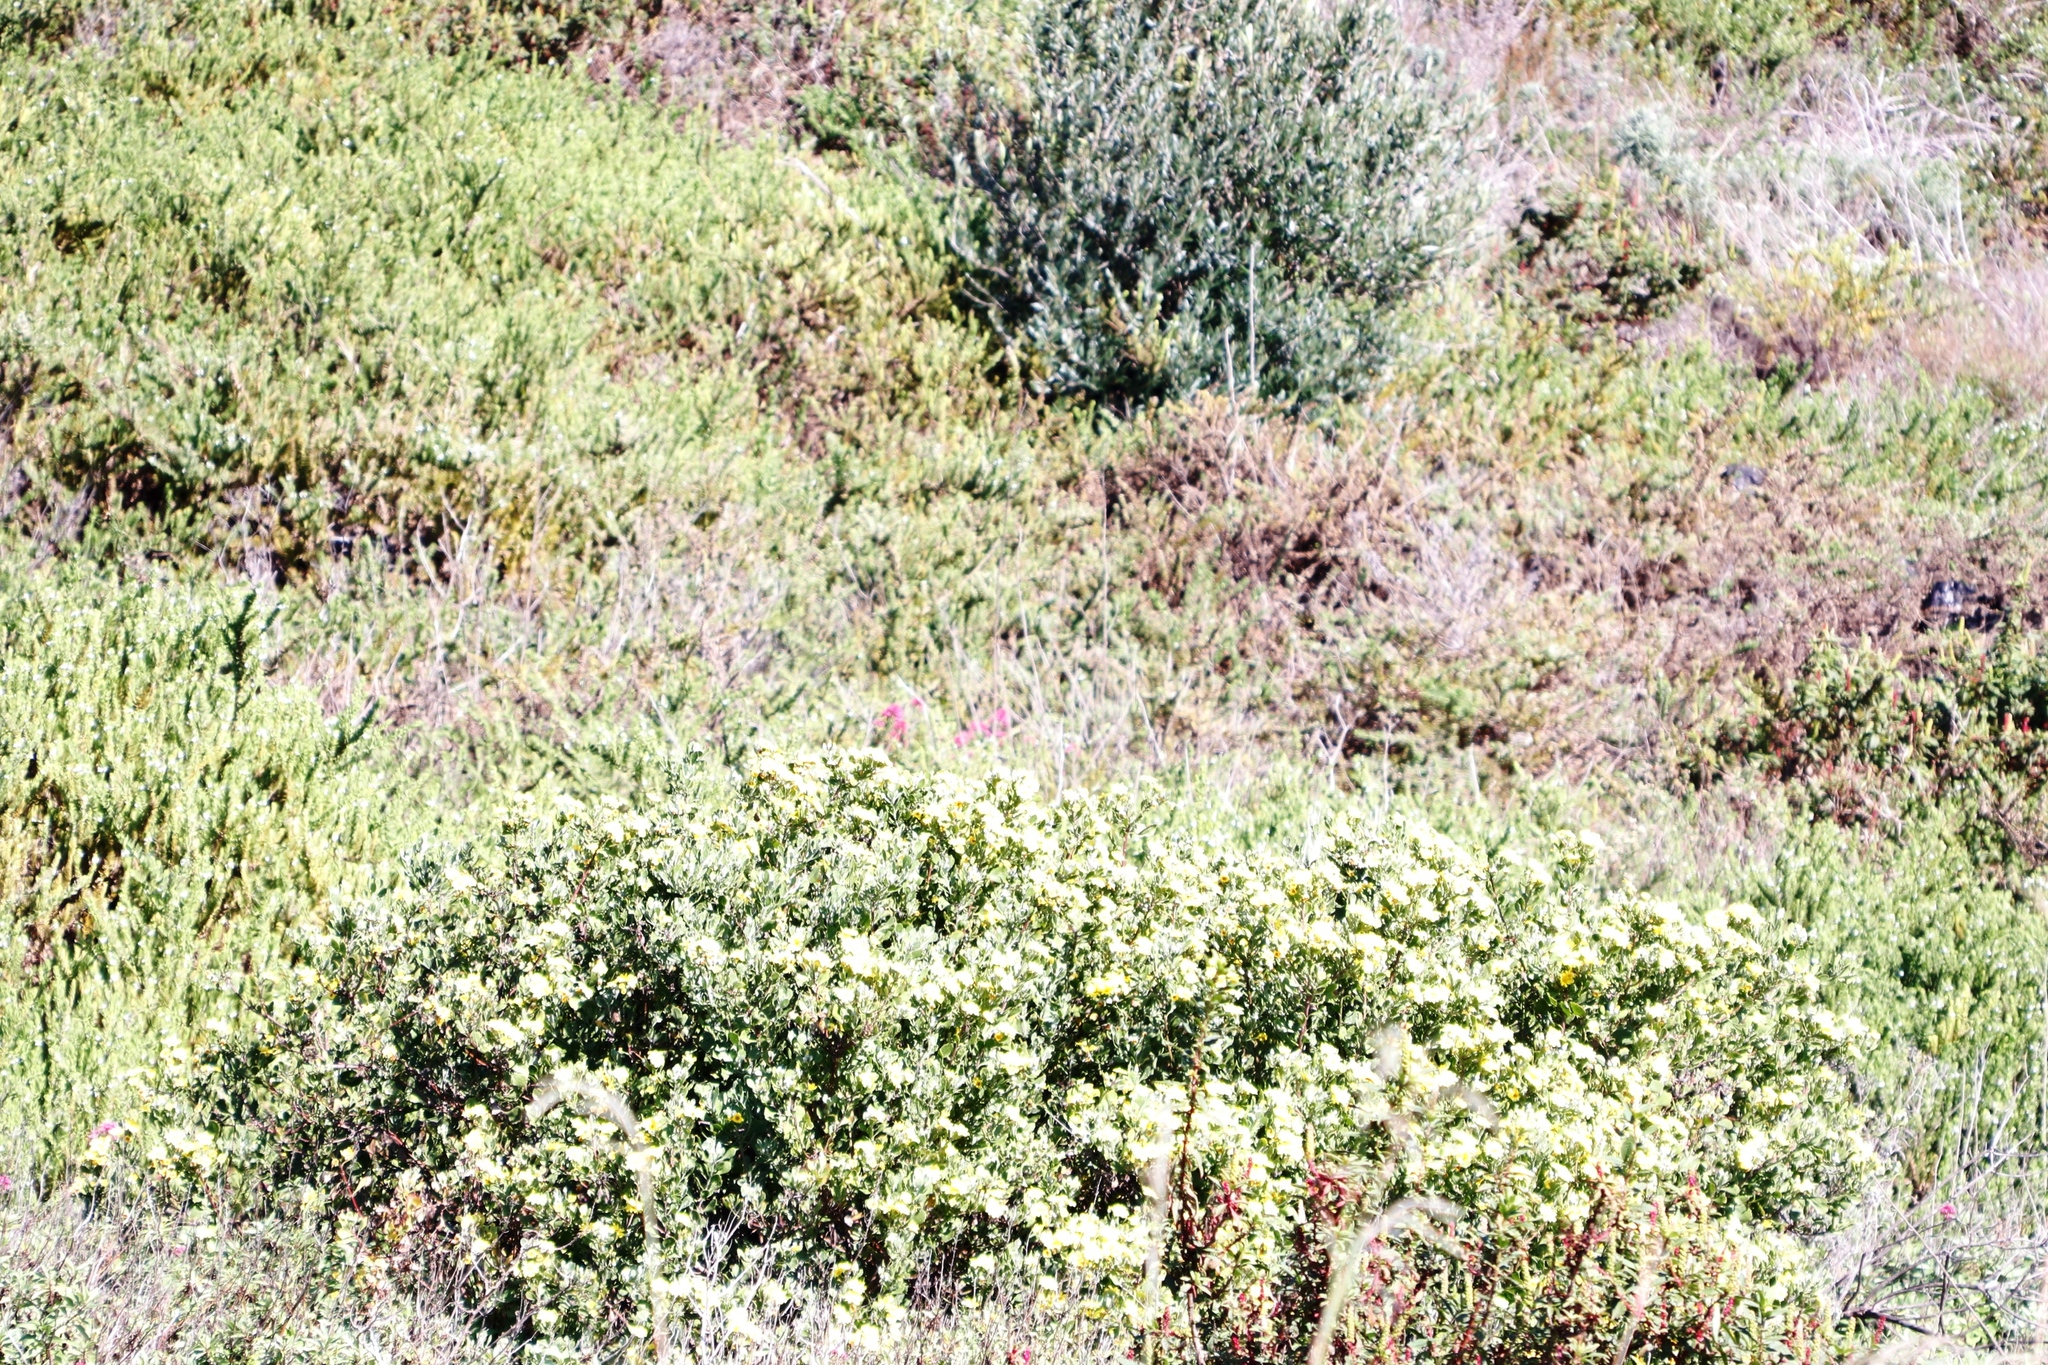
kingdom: Plantae
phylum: Tracheophyta
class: Magnoliopsida
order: Asterales
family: Asteraceae
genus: Osteospermum
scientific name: Osteospermum moniliferum
